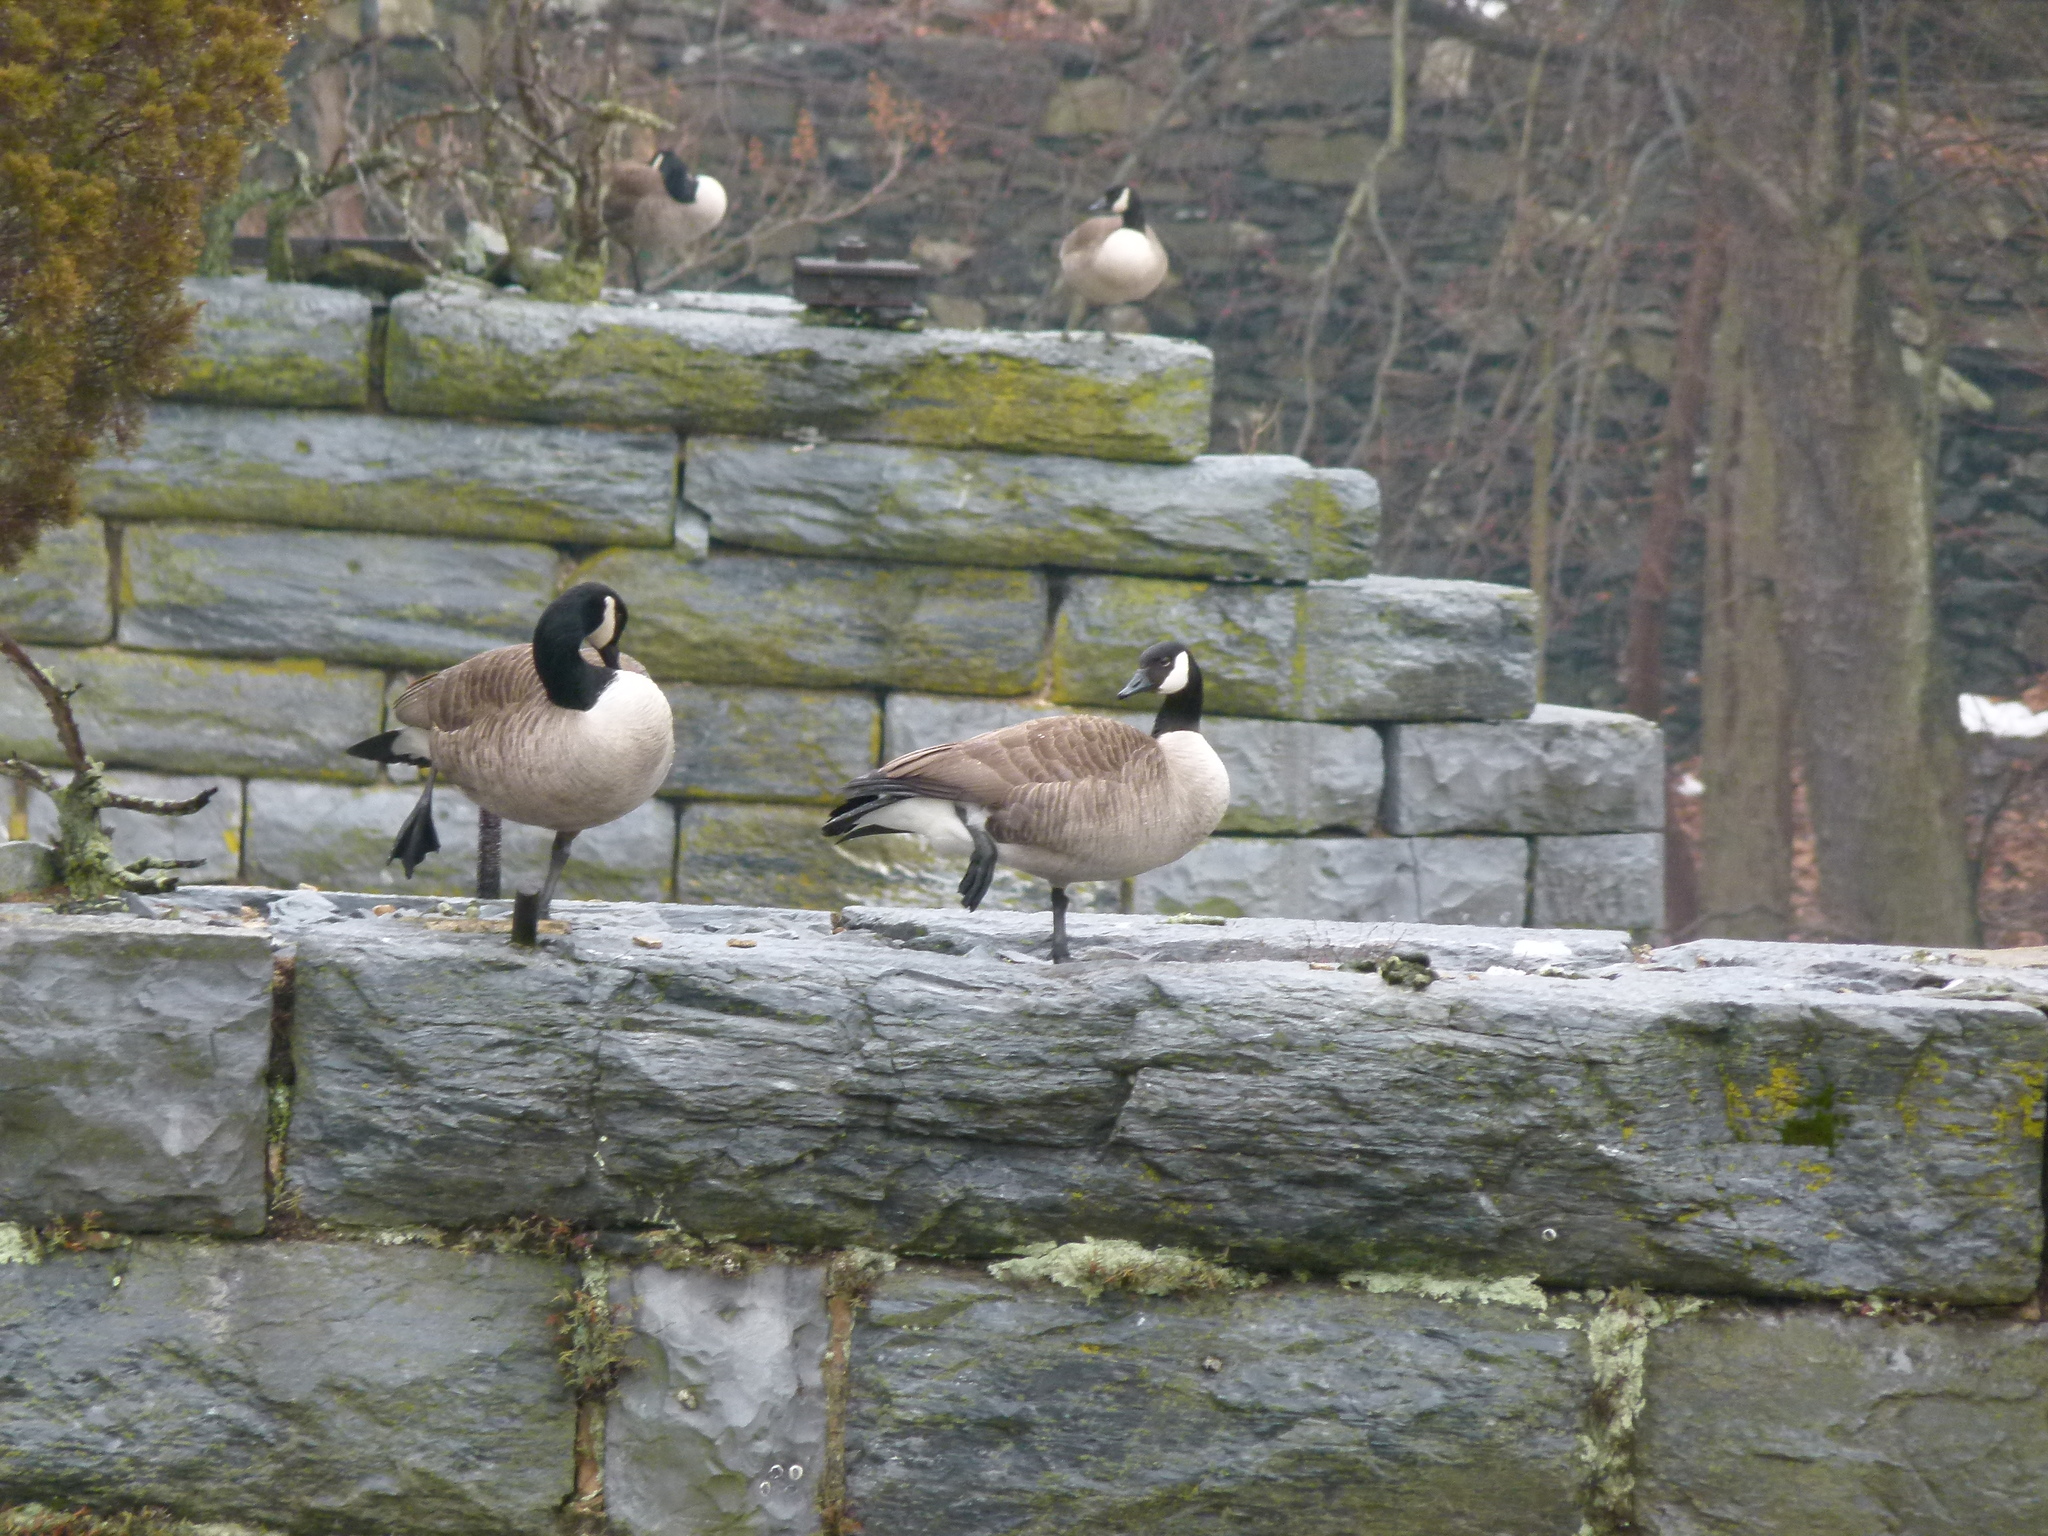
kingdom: Animalia
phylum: Chordata
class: Aves
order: Anseriformes
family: Anatidae
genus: Branta
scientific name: Branta canadensis
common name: Canada goose
